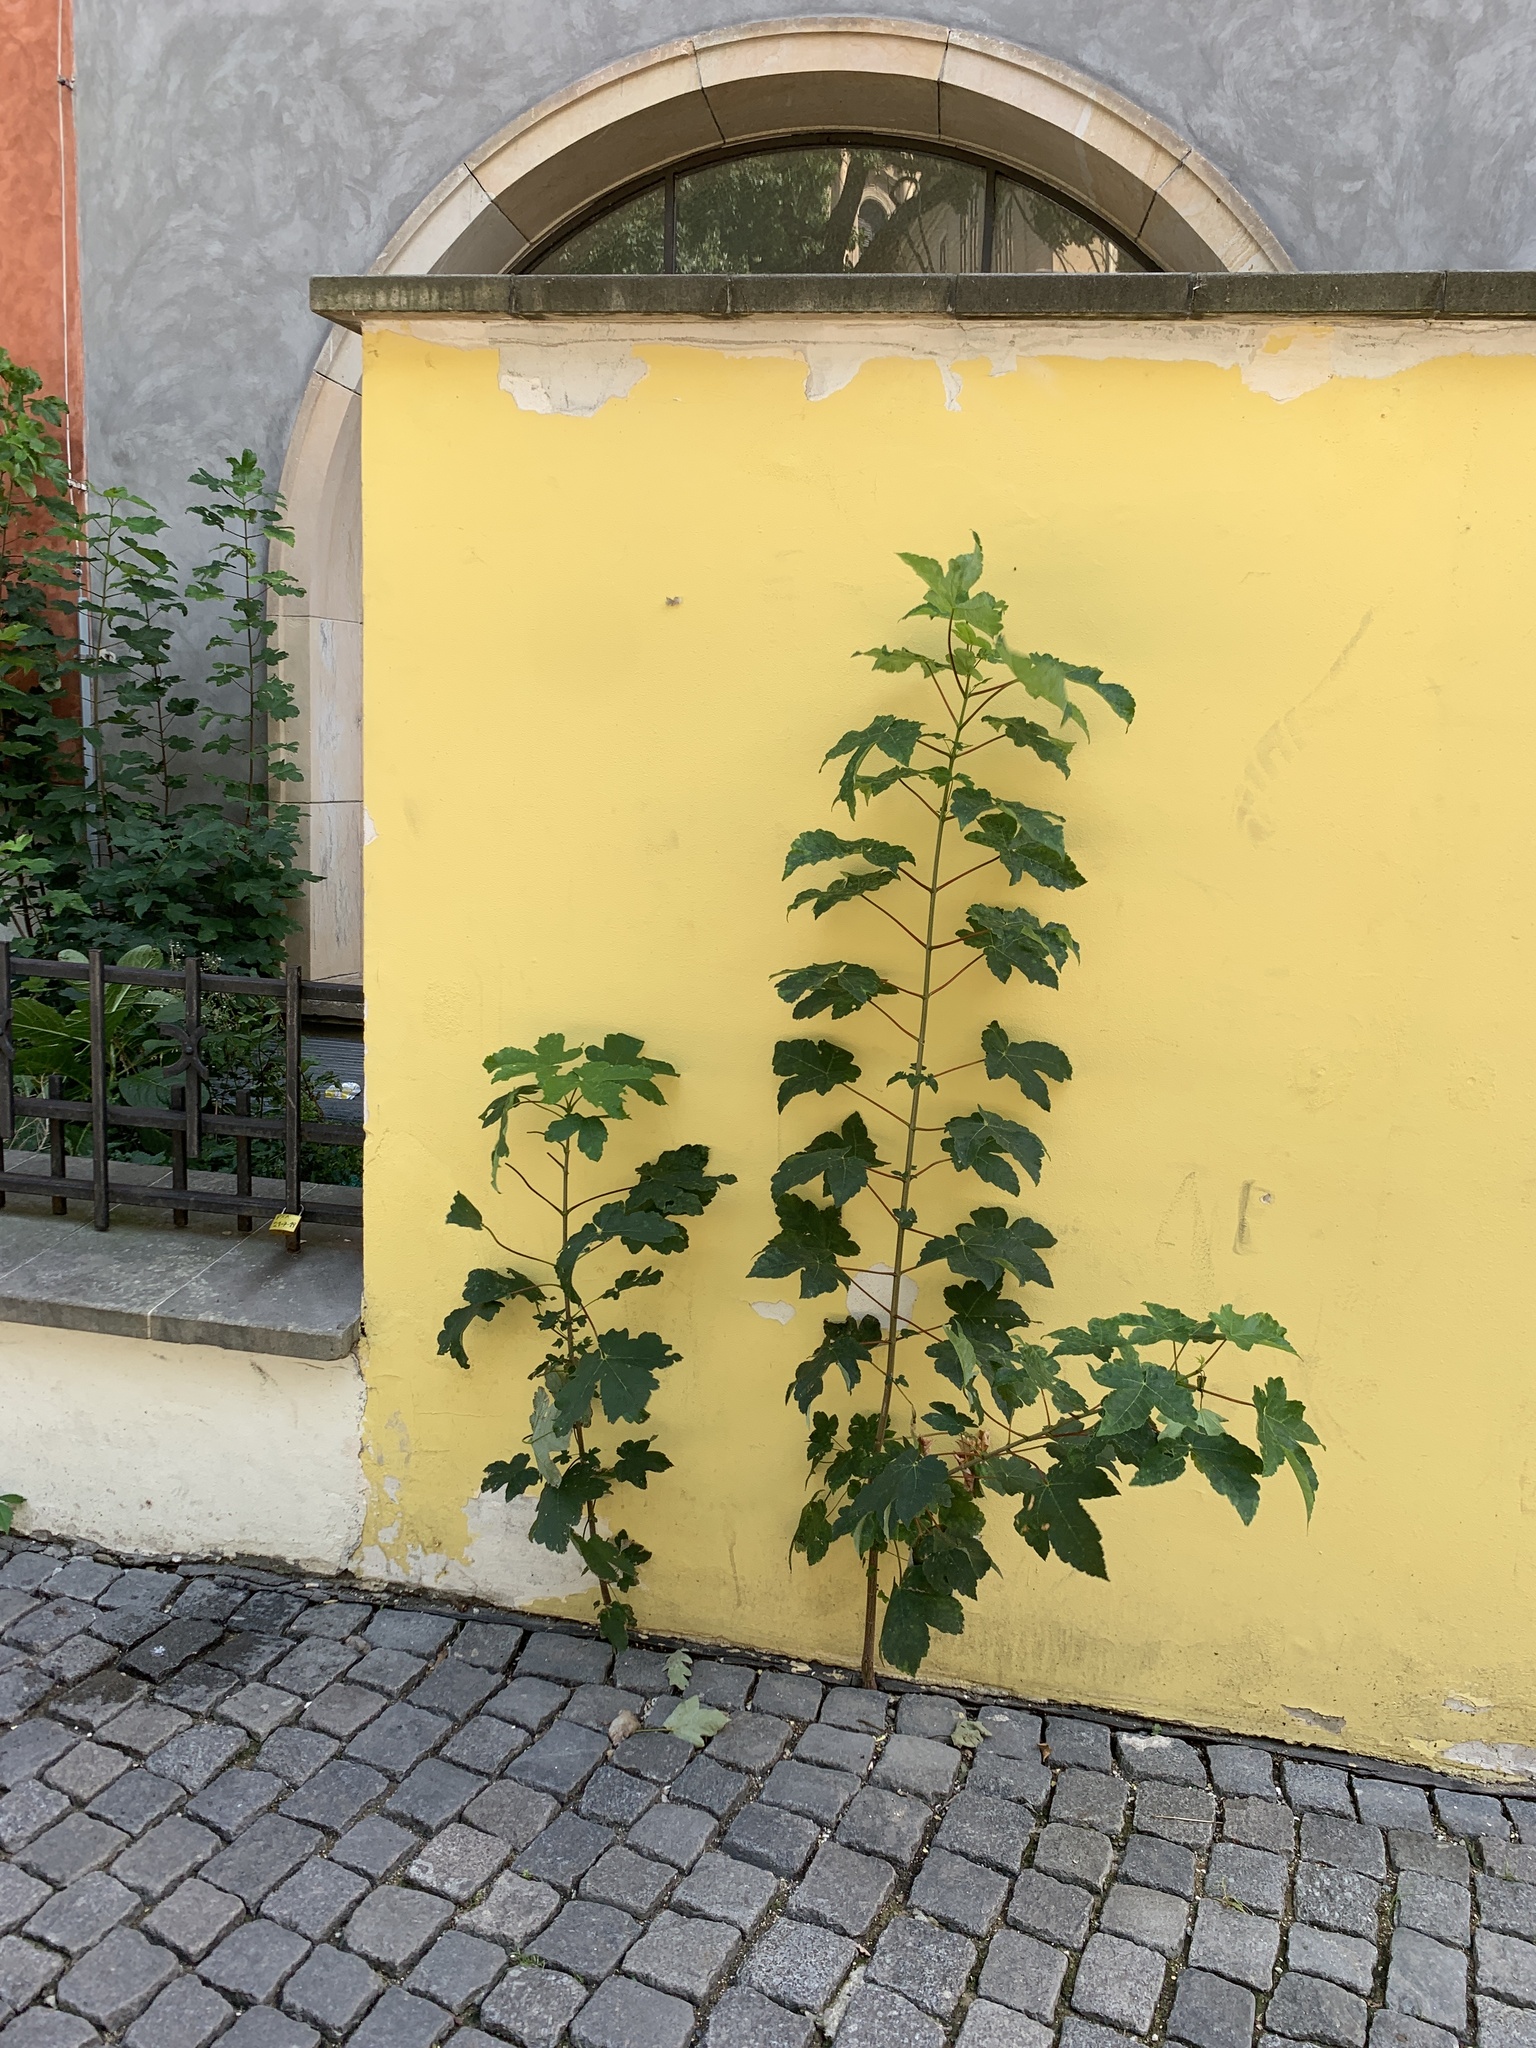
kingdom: Plantae
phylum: Tracheophyta
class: Magnoliopsida
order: Sapindales
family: Sapindaceae
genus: Acer
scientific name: Acer pseudoplatanus
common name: Sycamore
